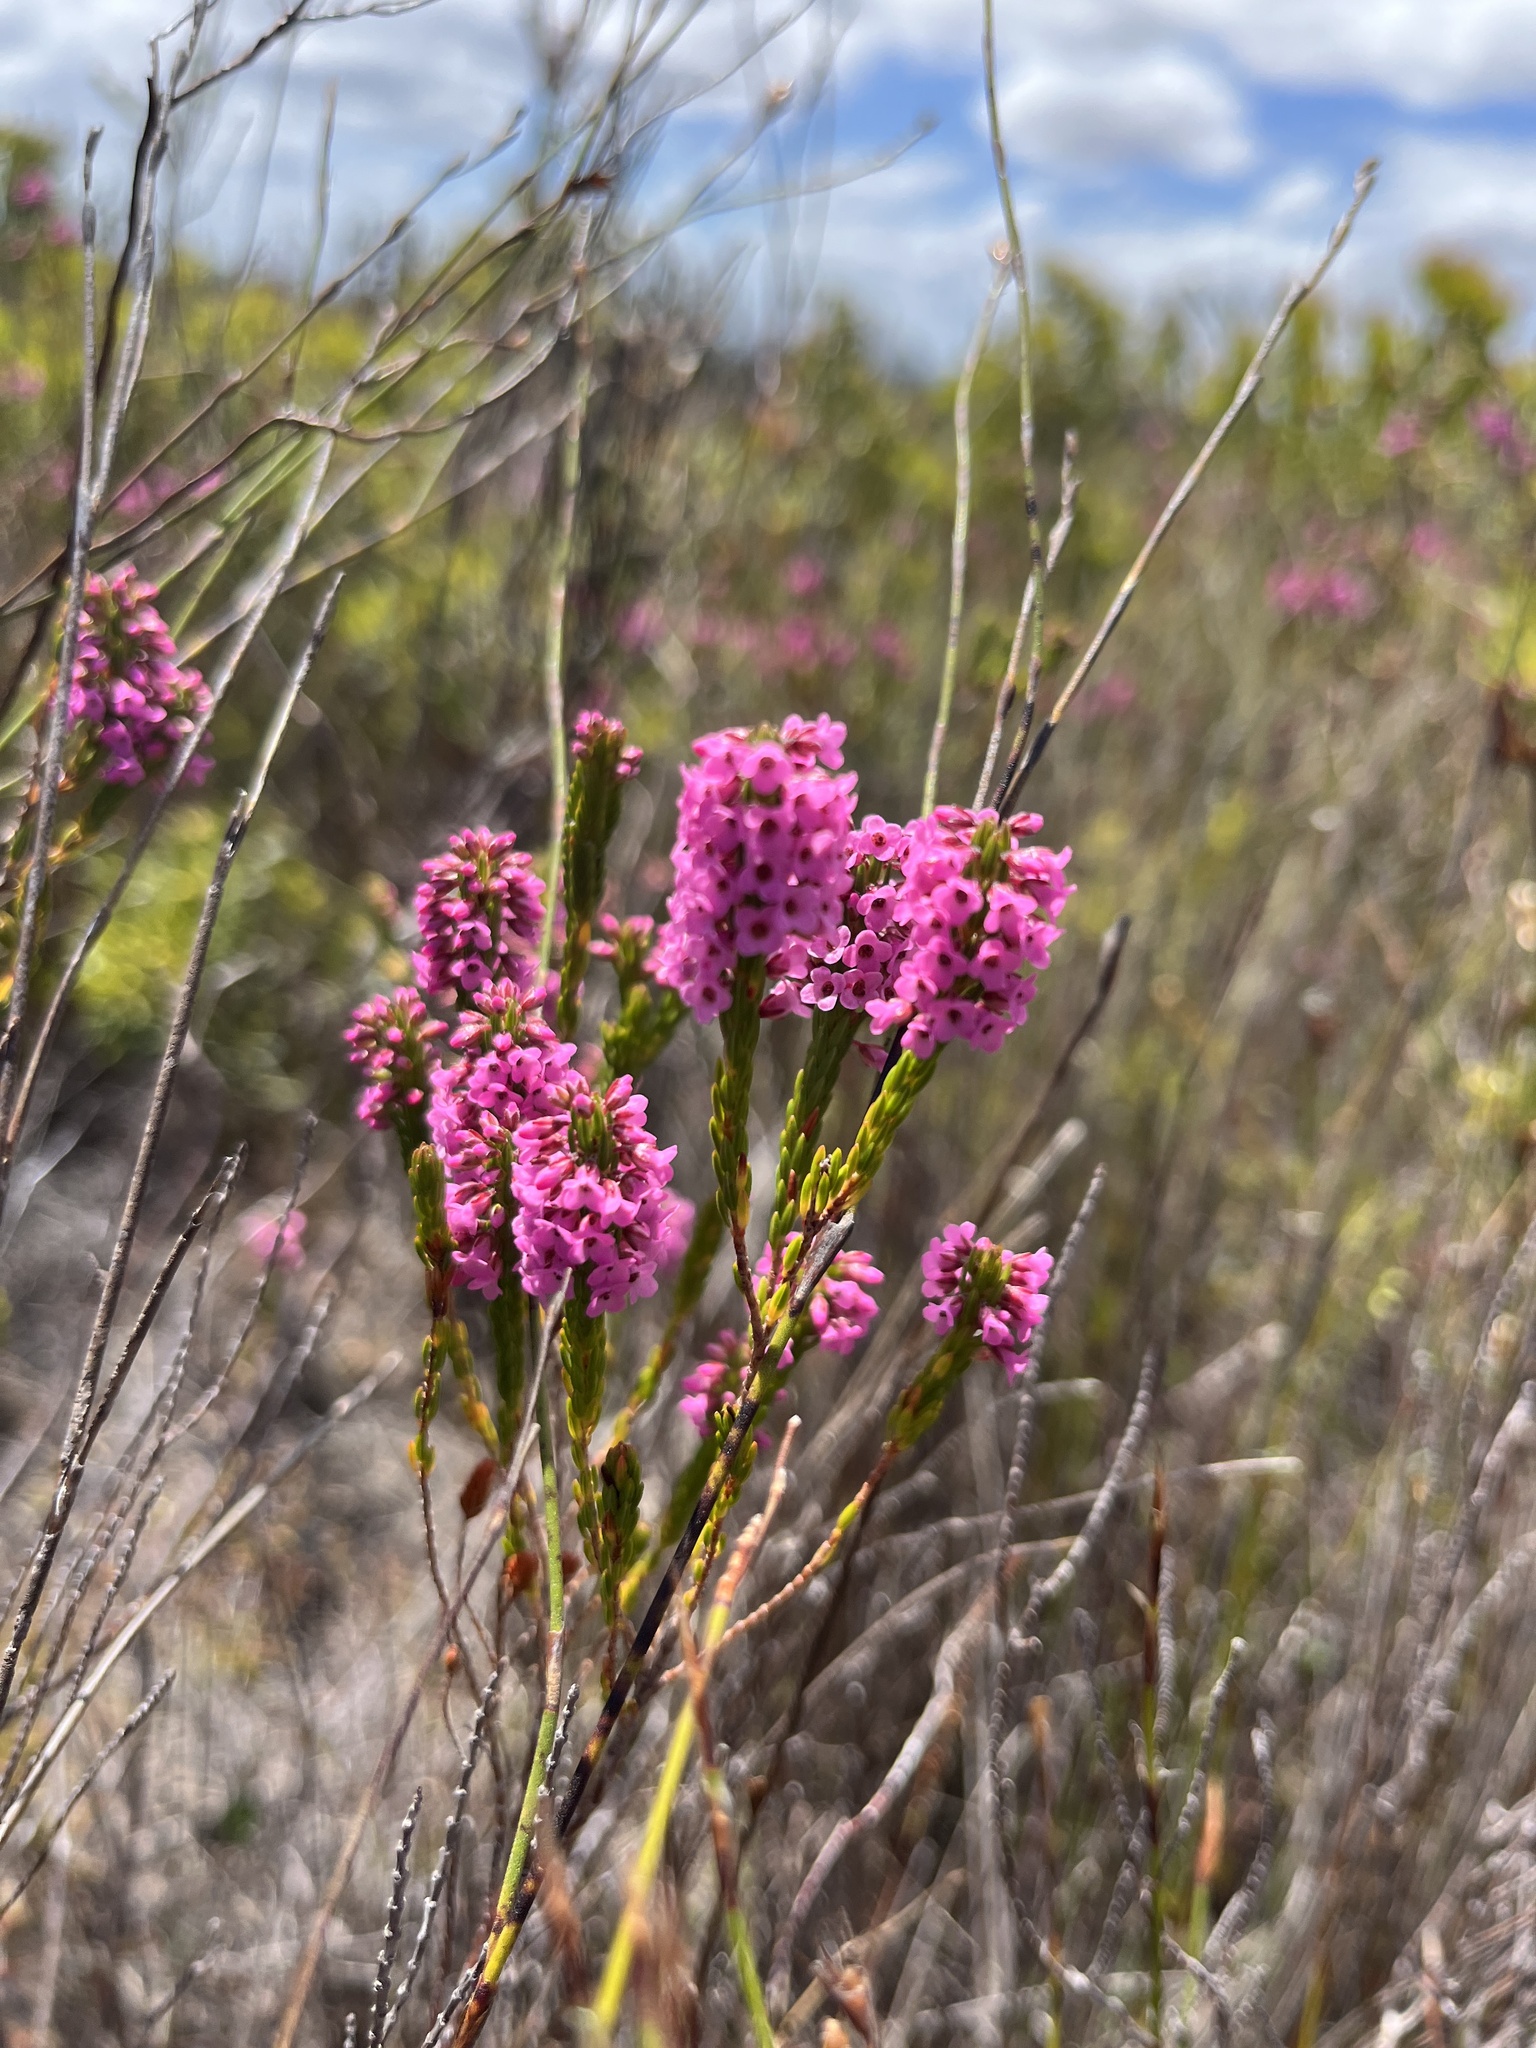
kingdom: Plantae
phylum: Tracheophyta
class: Magnoliopsida
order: Ericales
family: Ericaceae
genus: Erica
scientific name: Erica longiaristata
